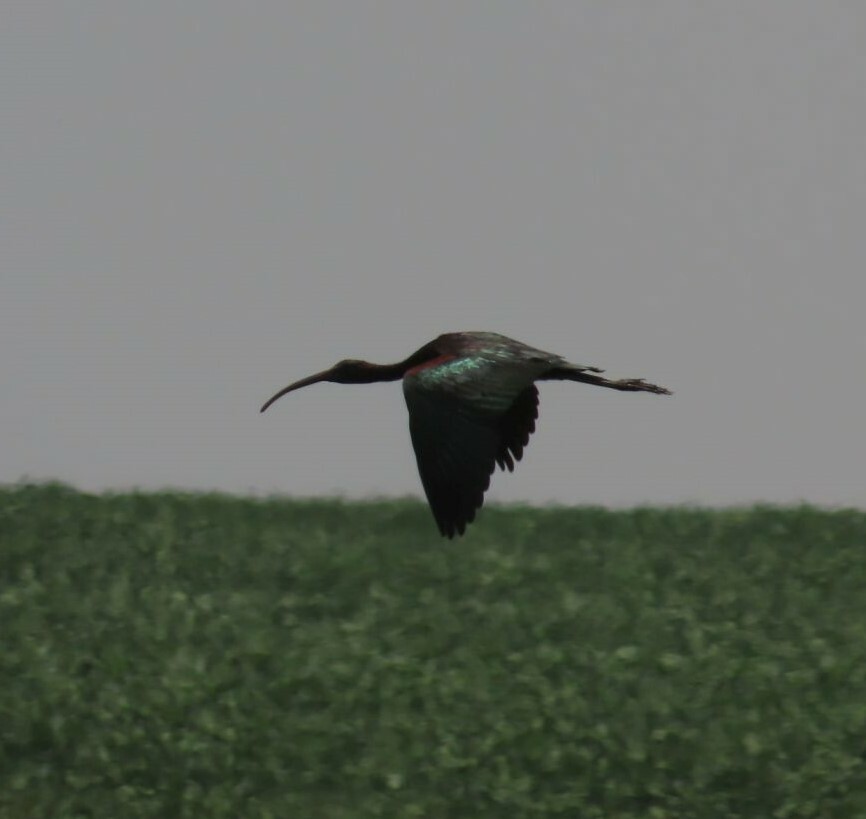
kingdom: Animalia
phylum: Chordata
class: Aves
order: Pelecaniformes
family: Threskiornithidae
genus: Plegadis
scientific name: Plegadis falcinellus
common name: Glossy ibis
